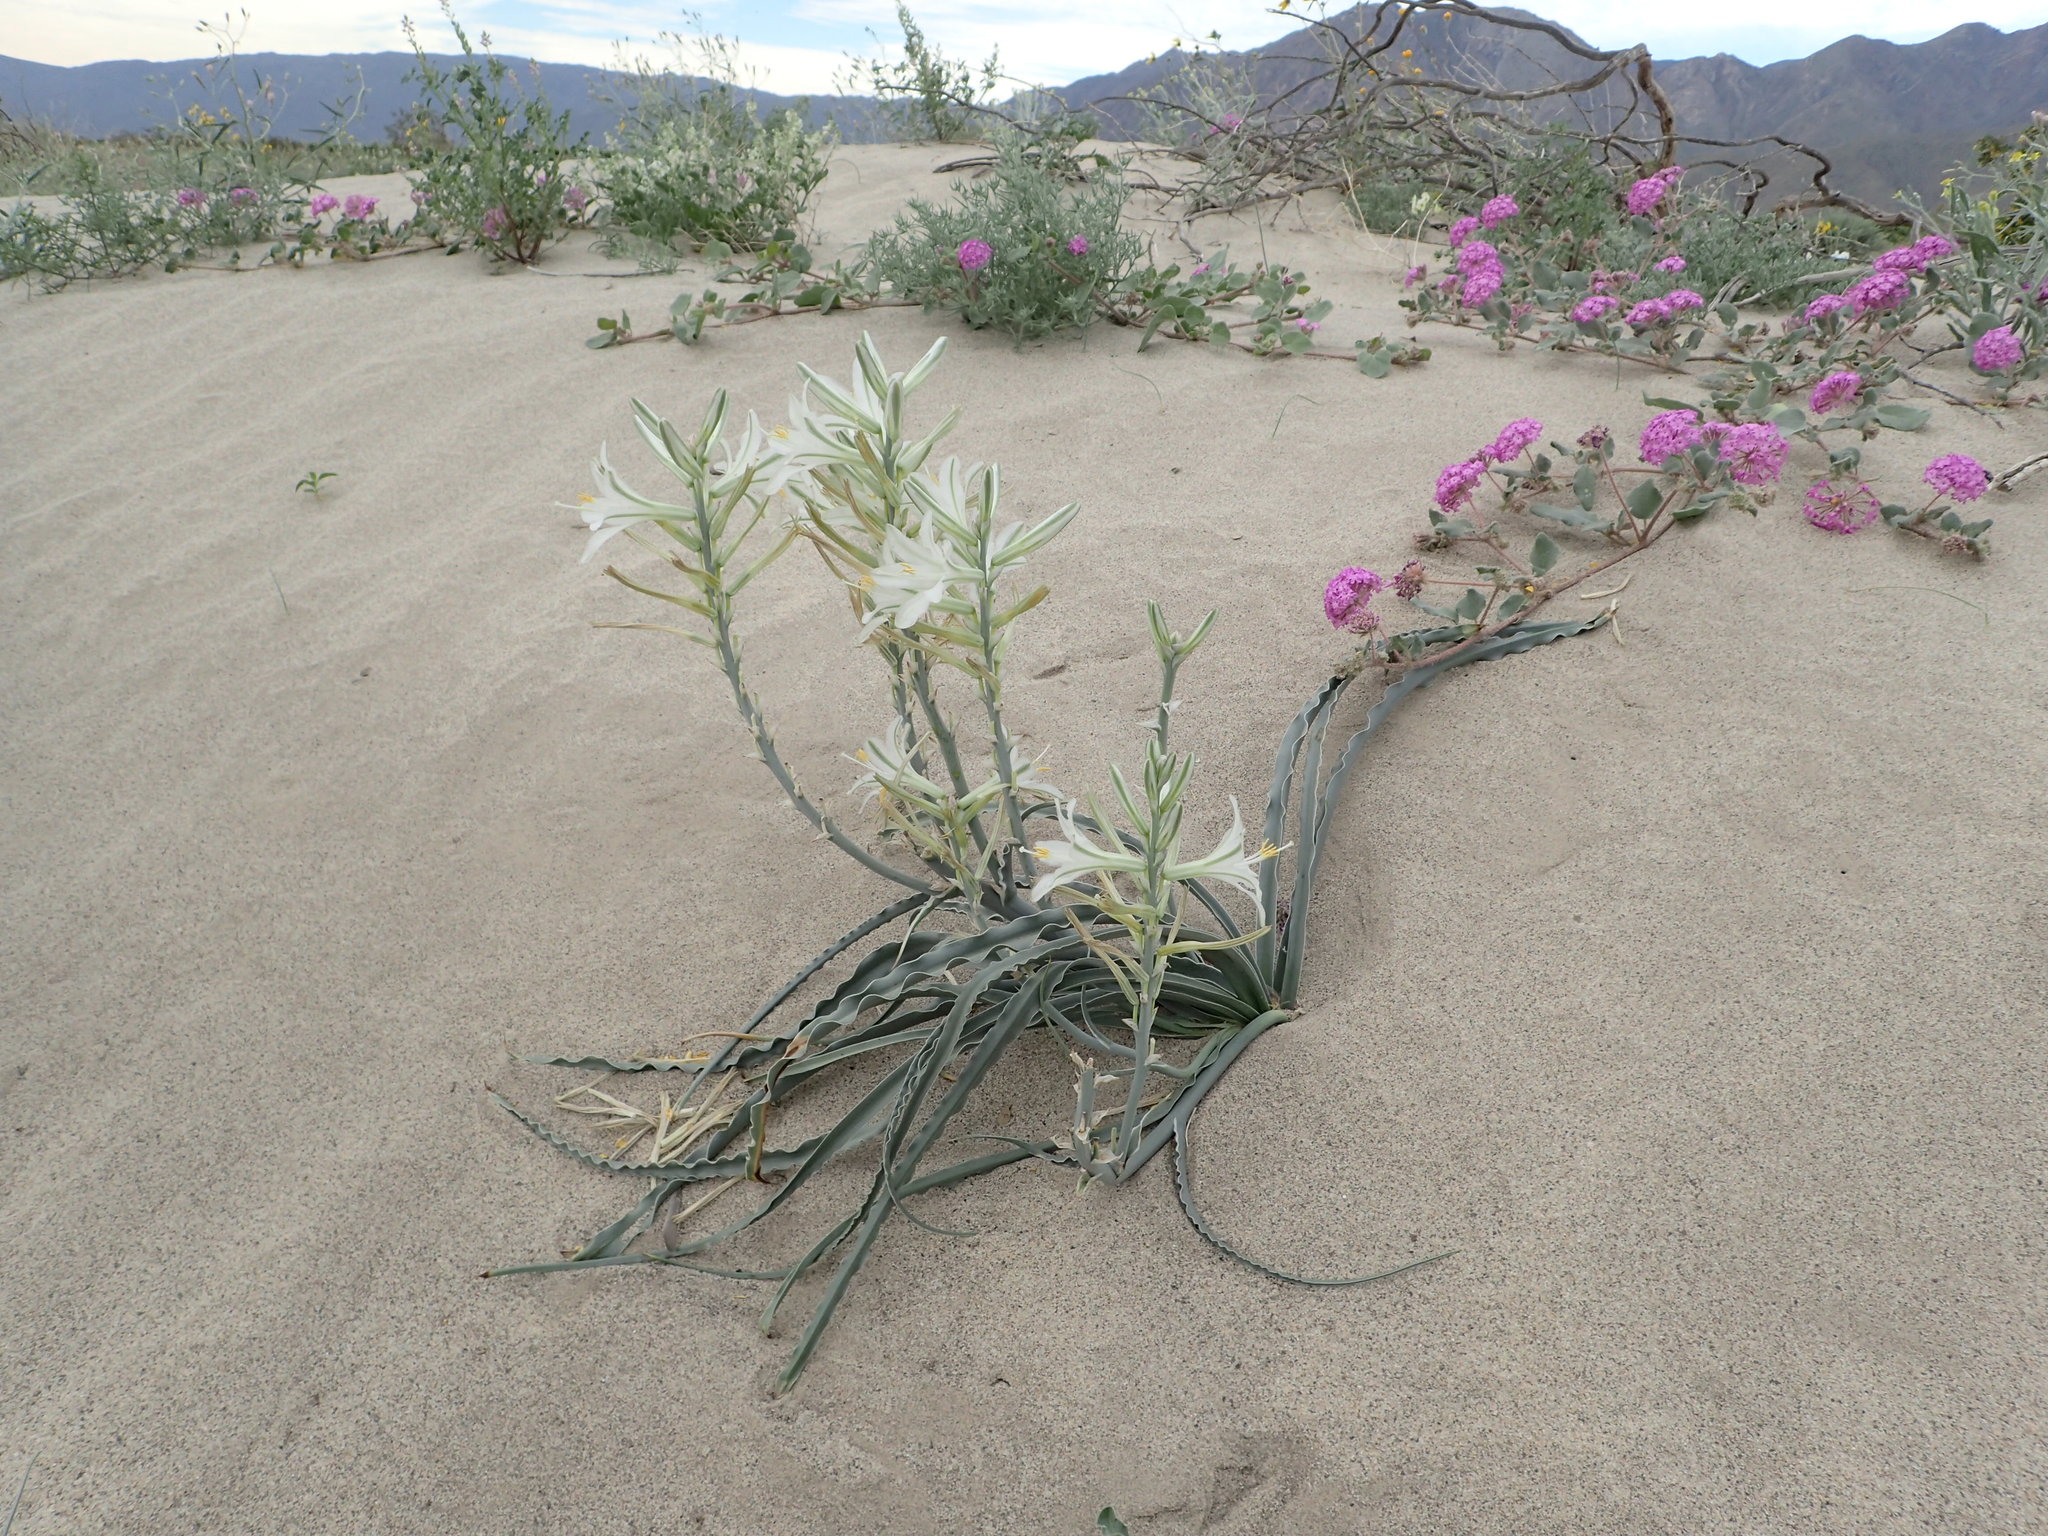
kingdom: Plantae
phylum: Tracheophyta
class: Liliopsida
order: Asparagales
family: Asparagaceae
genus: Hesperocallis
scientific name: Hesperocallis undulata
